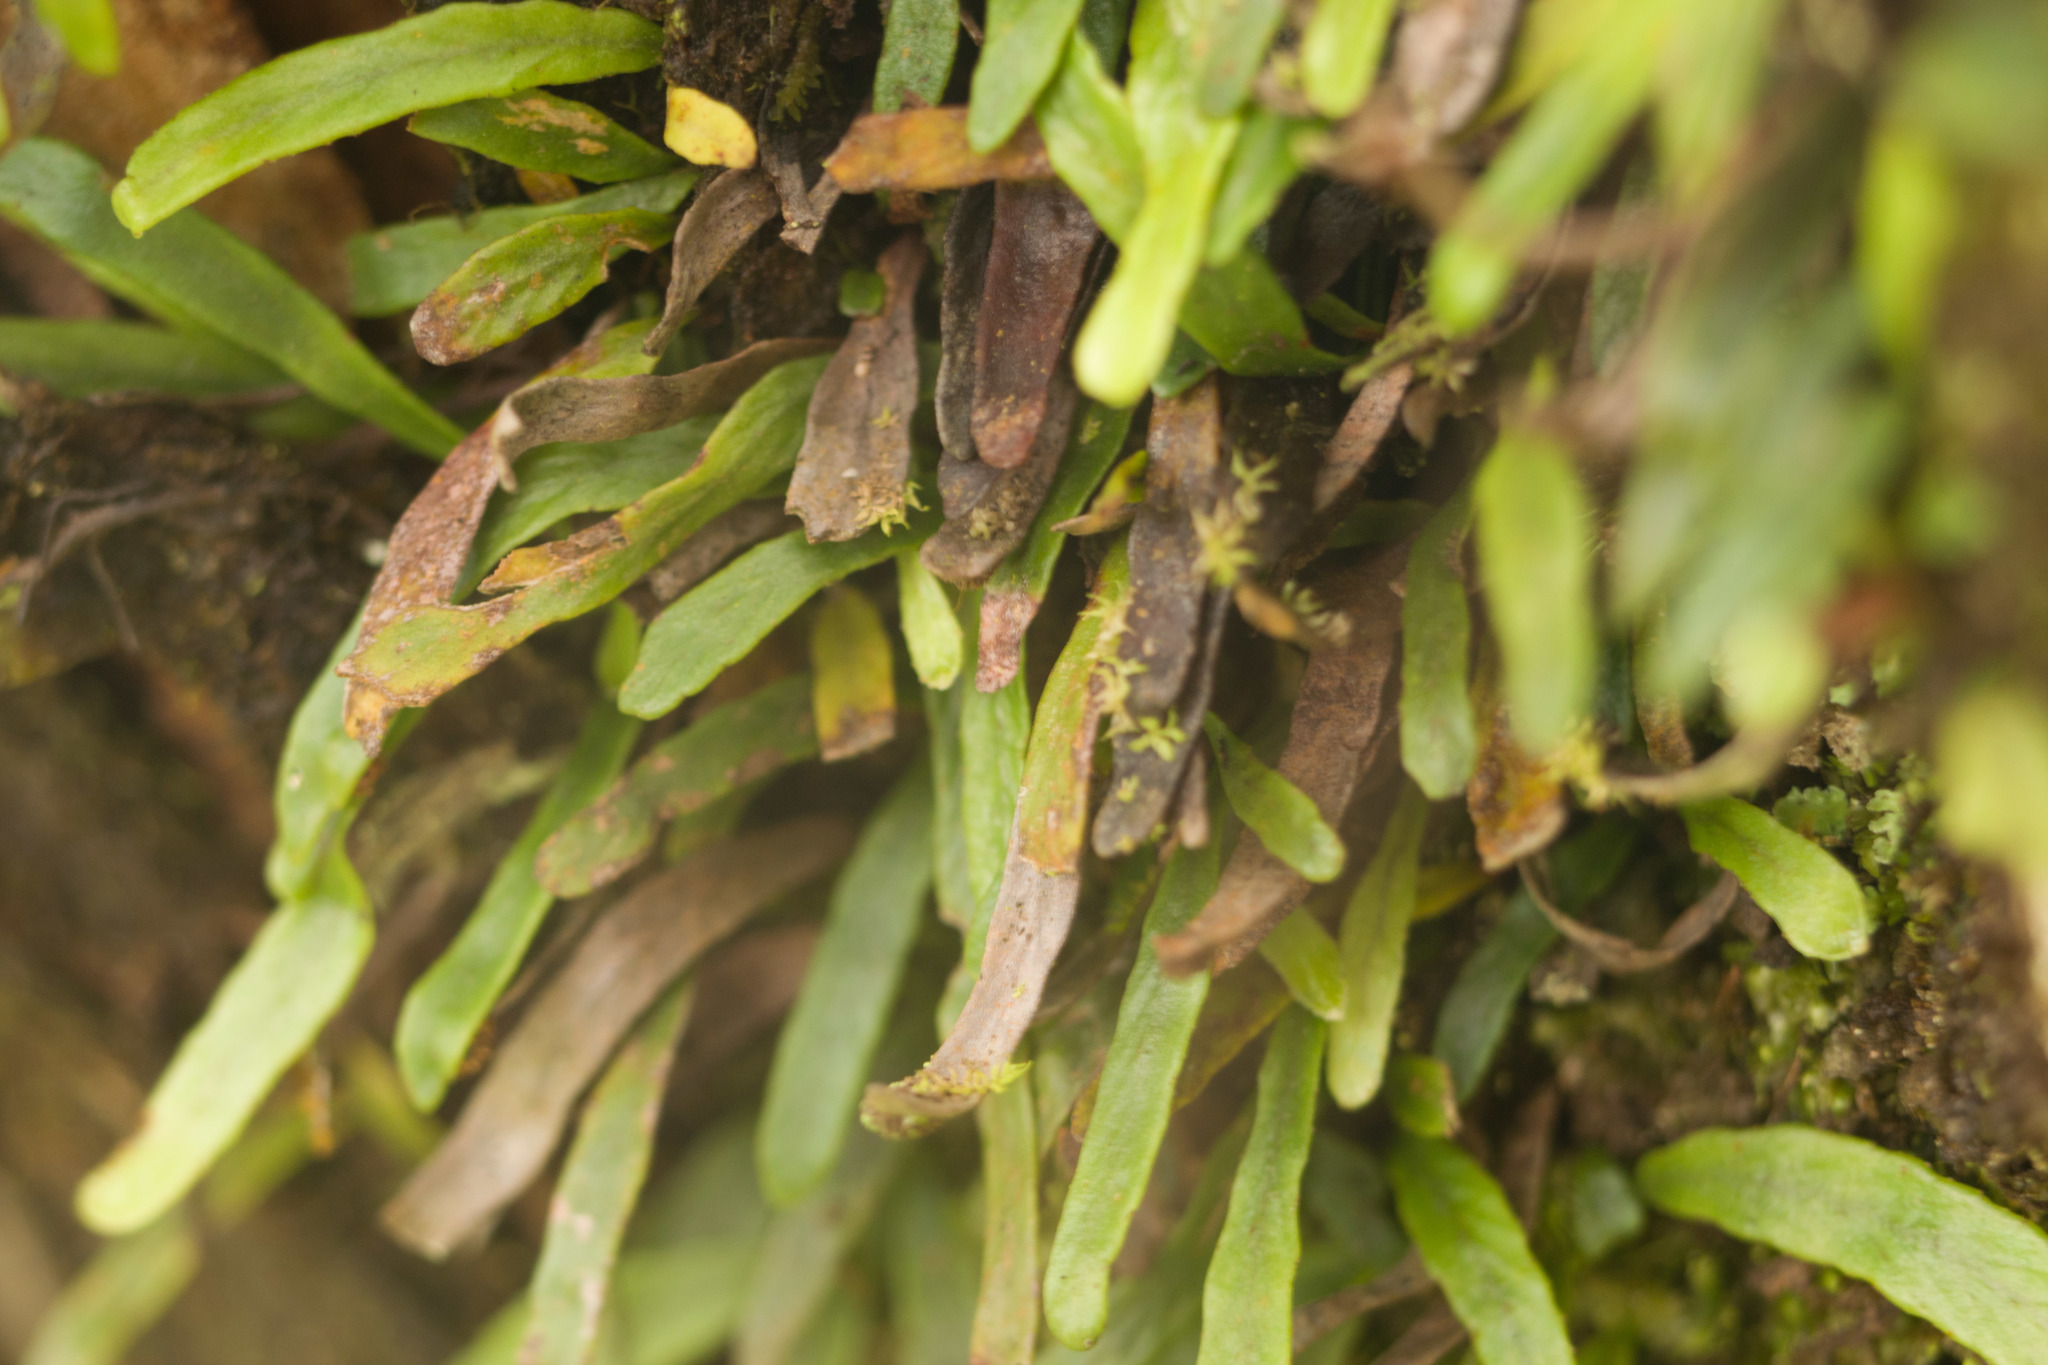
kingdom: Plantae
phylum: Tracheophyta
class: Polypodiopsida
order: Polypodiales
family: Polypodiaceae
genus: Adenophorus
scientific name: Adenophorus tenellus
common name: Kolokolo
